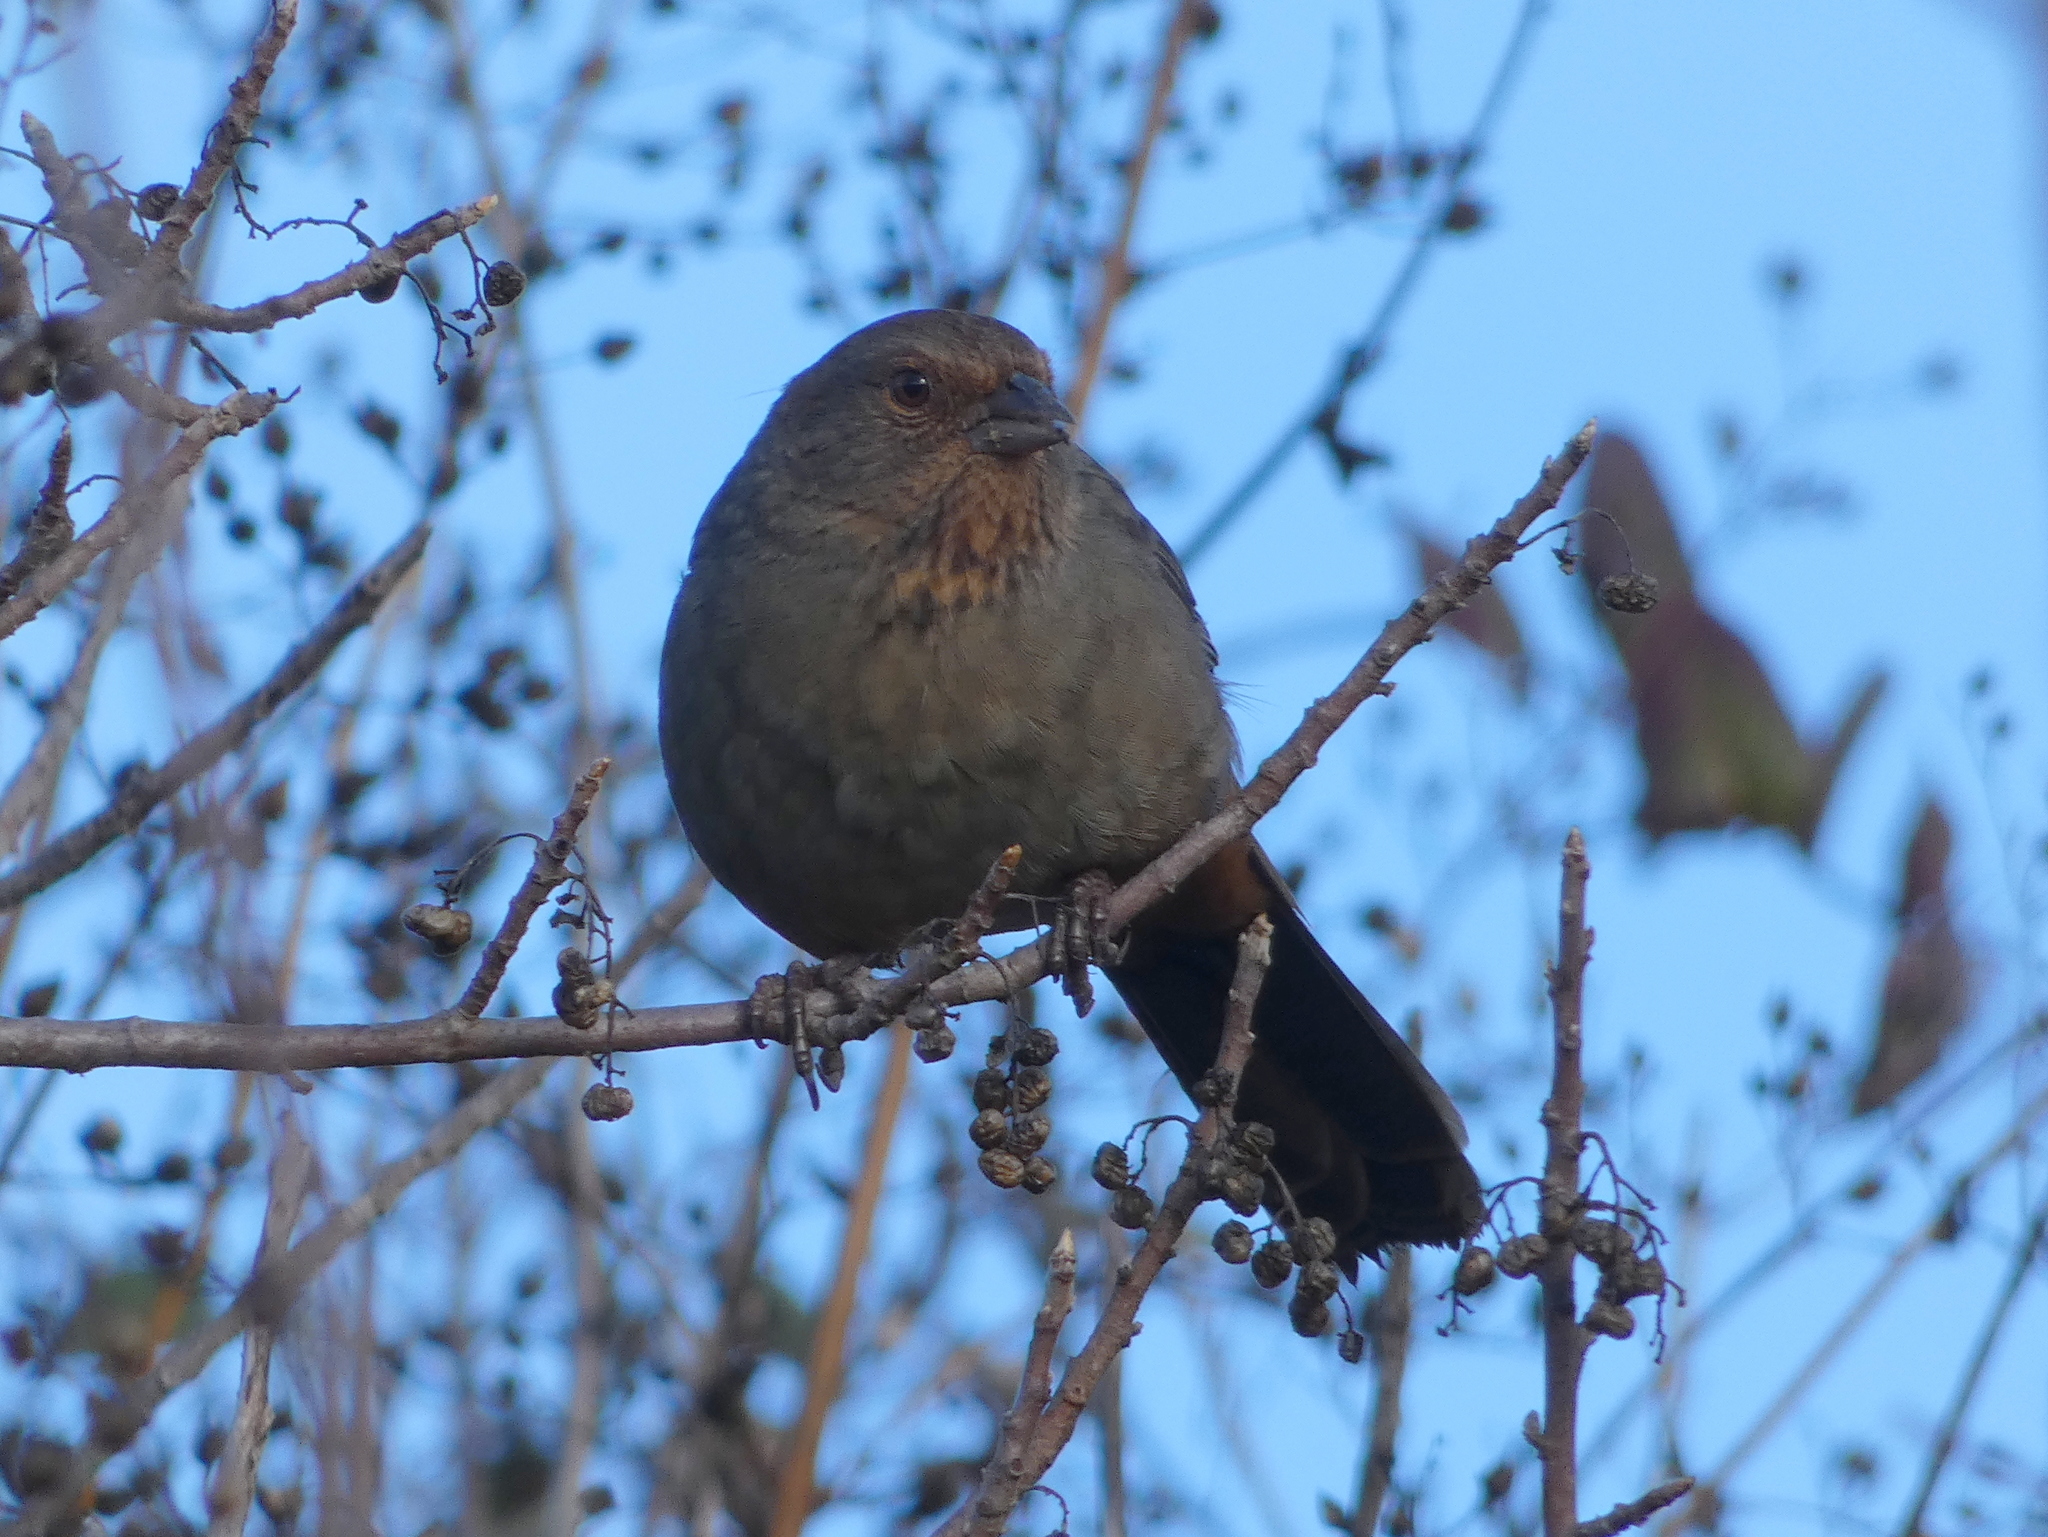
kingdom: Animalia
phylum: Chordata
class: Aves
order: Passeriformes
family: Passerellidae
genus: Melozone
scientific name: Melozone crissalis
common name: California towhee
